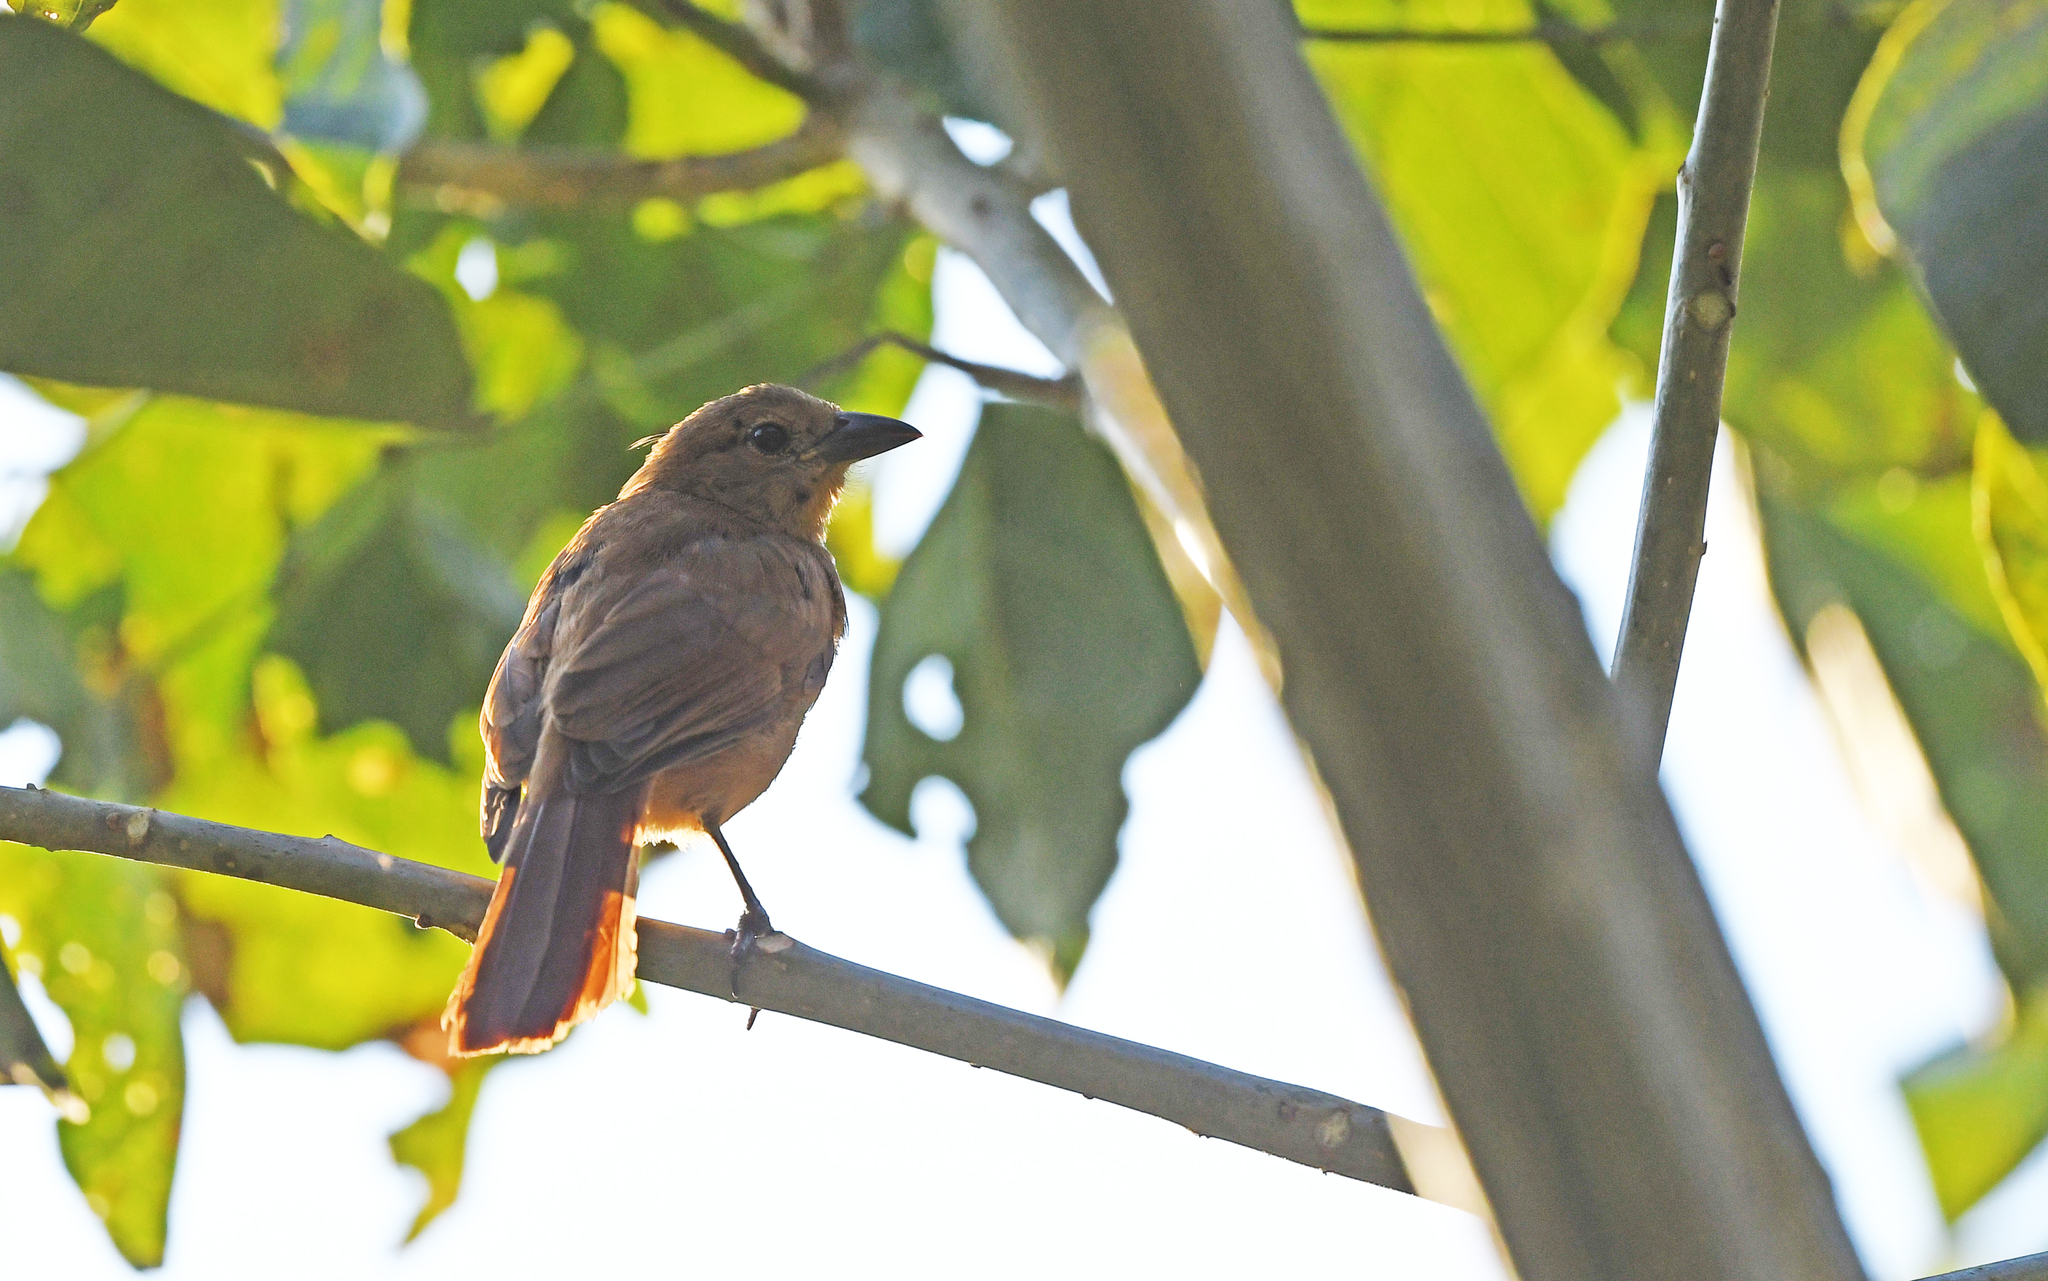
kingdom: Animalia
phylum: Chordata
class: Aves
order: Passeriformes
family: Thraupidae
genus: Tachyphonus
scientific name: Tachyphonus rufus
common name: White-lined tanager
